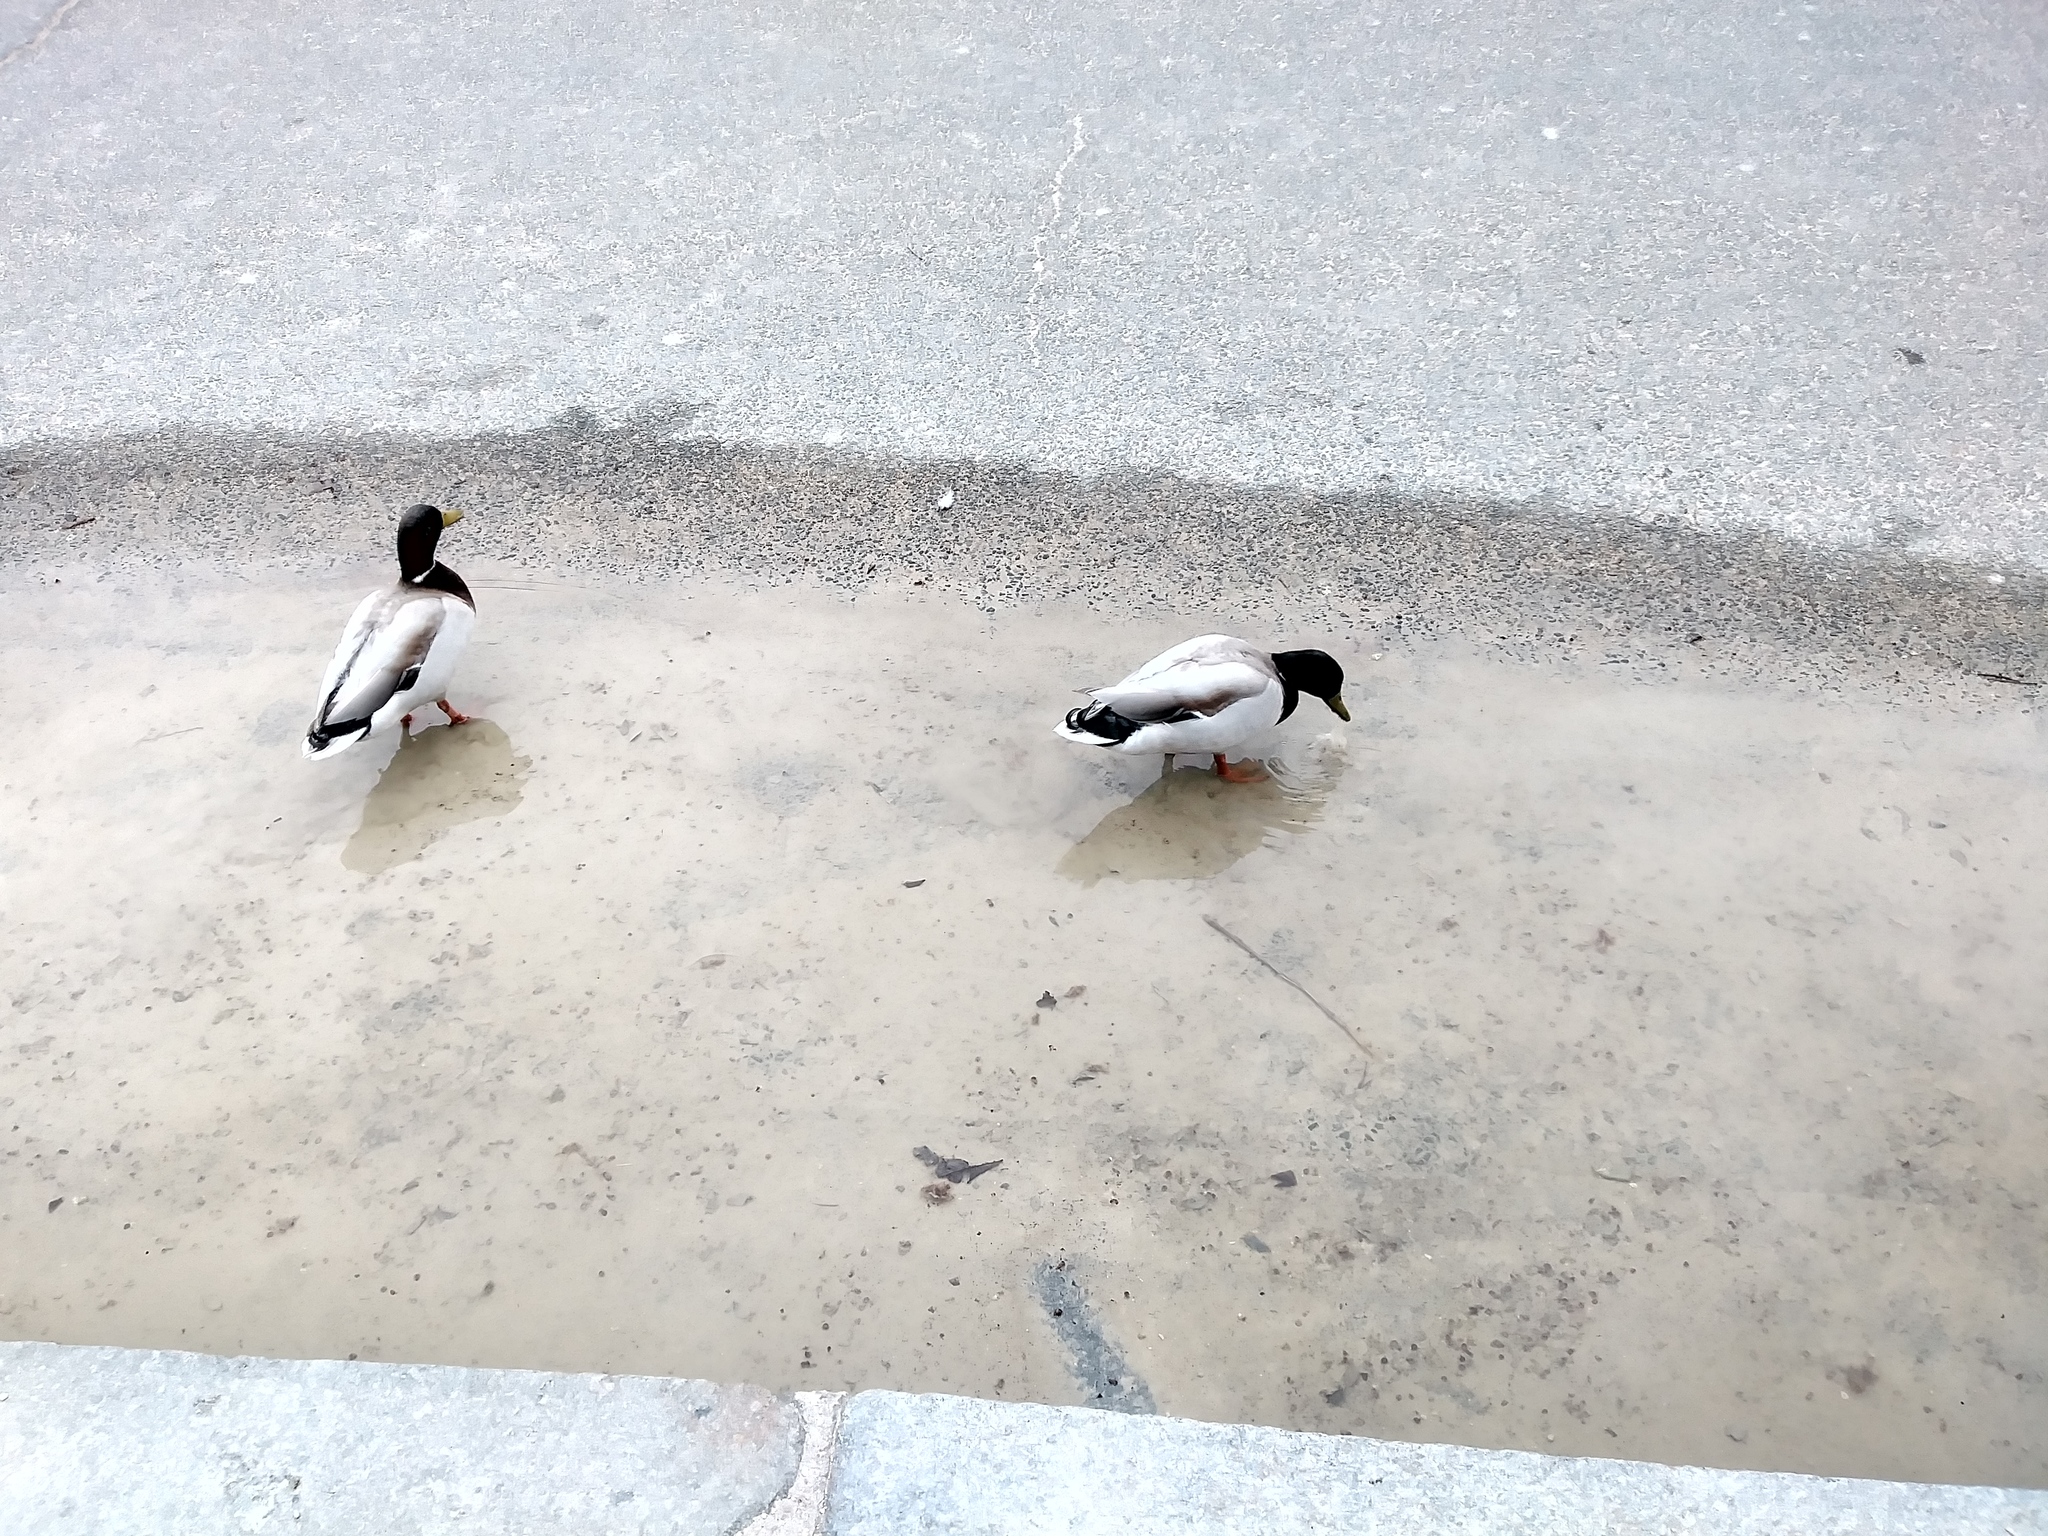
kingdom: Animalia
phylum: Chordata
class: Aves
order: Anseriformes
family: Anatidae
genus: Anas
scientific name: Anas platyrhynchos
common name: Mallard
